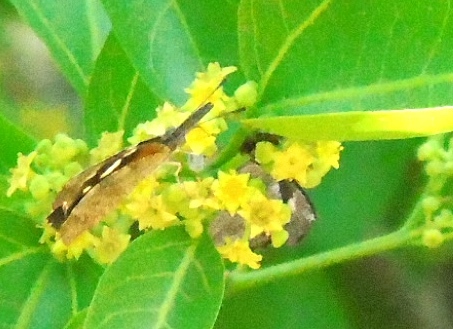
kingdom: Animalia
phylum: Arthropoda
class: Insecta
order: Lepidoptera
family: Nymphalidae
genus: Libytheana
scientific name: Libytheana carinenta
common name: American snout
